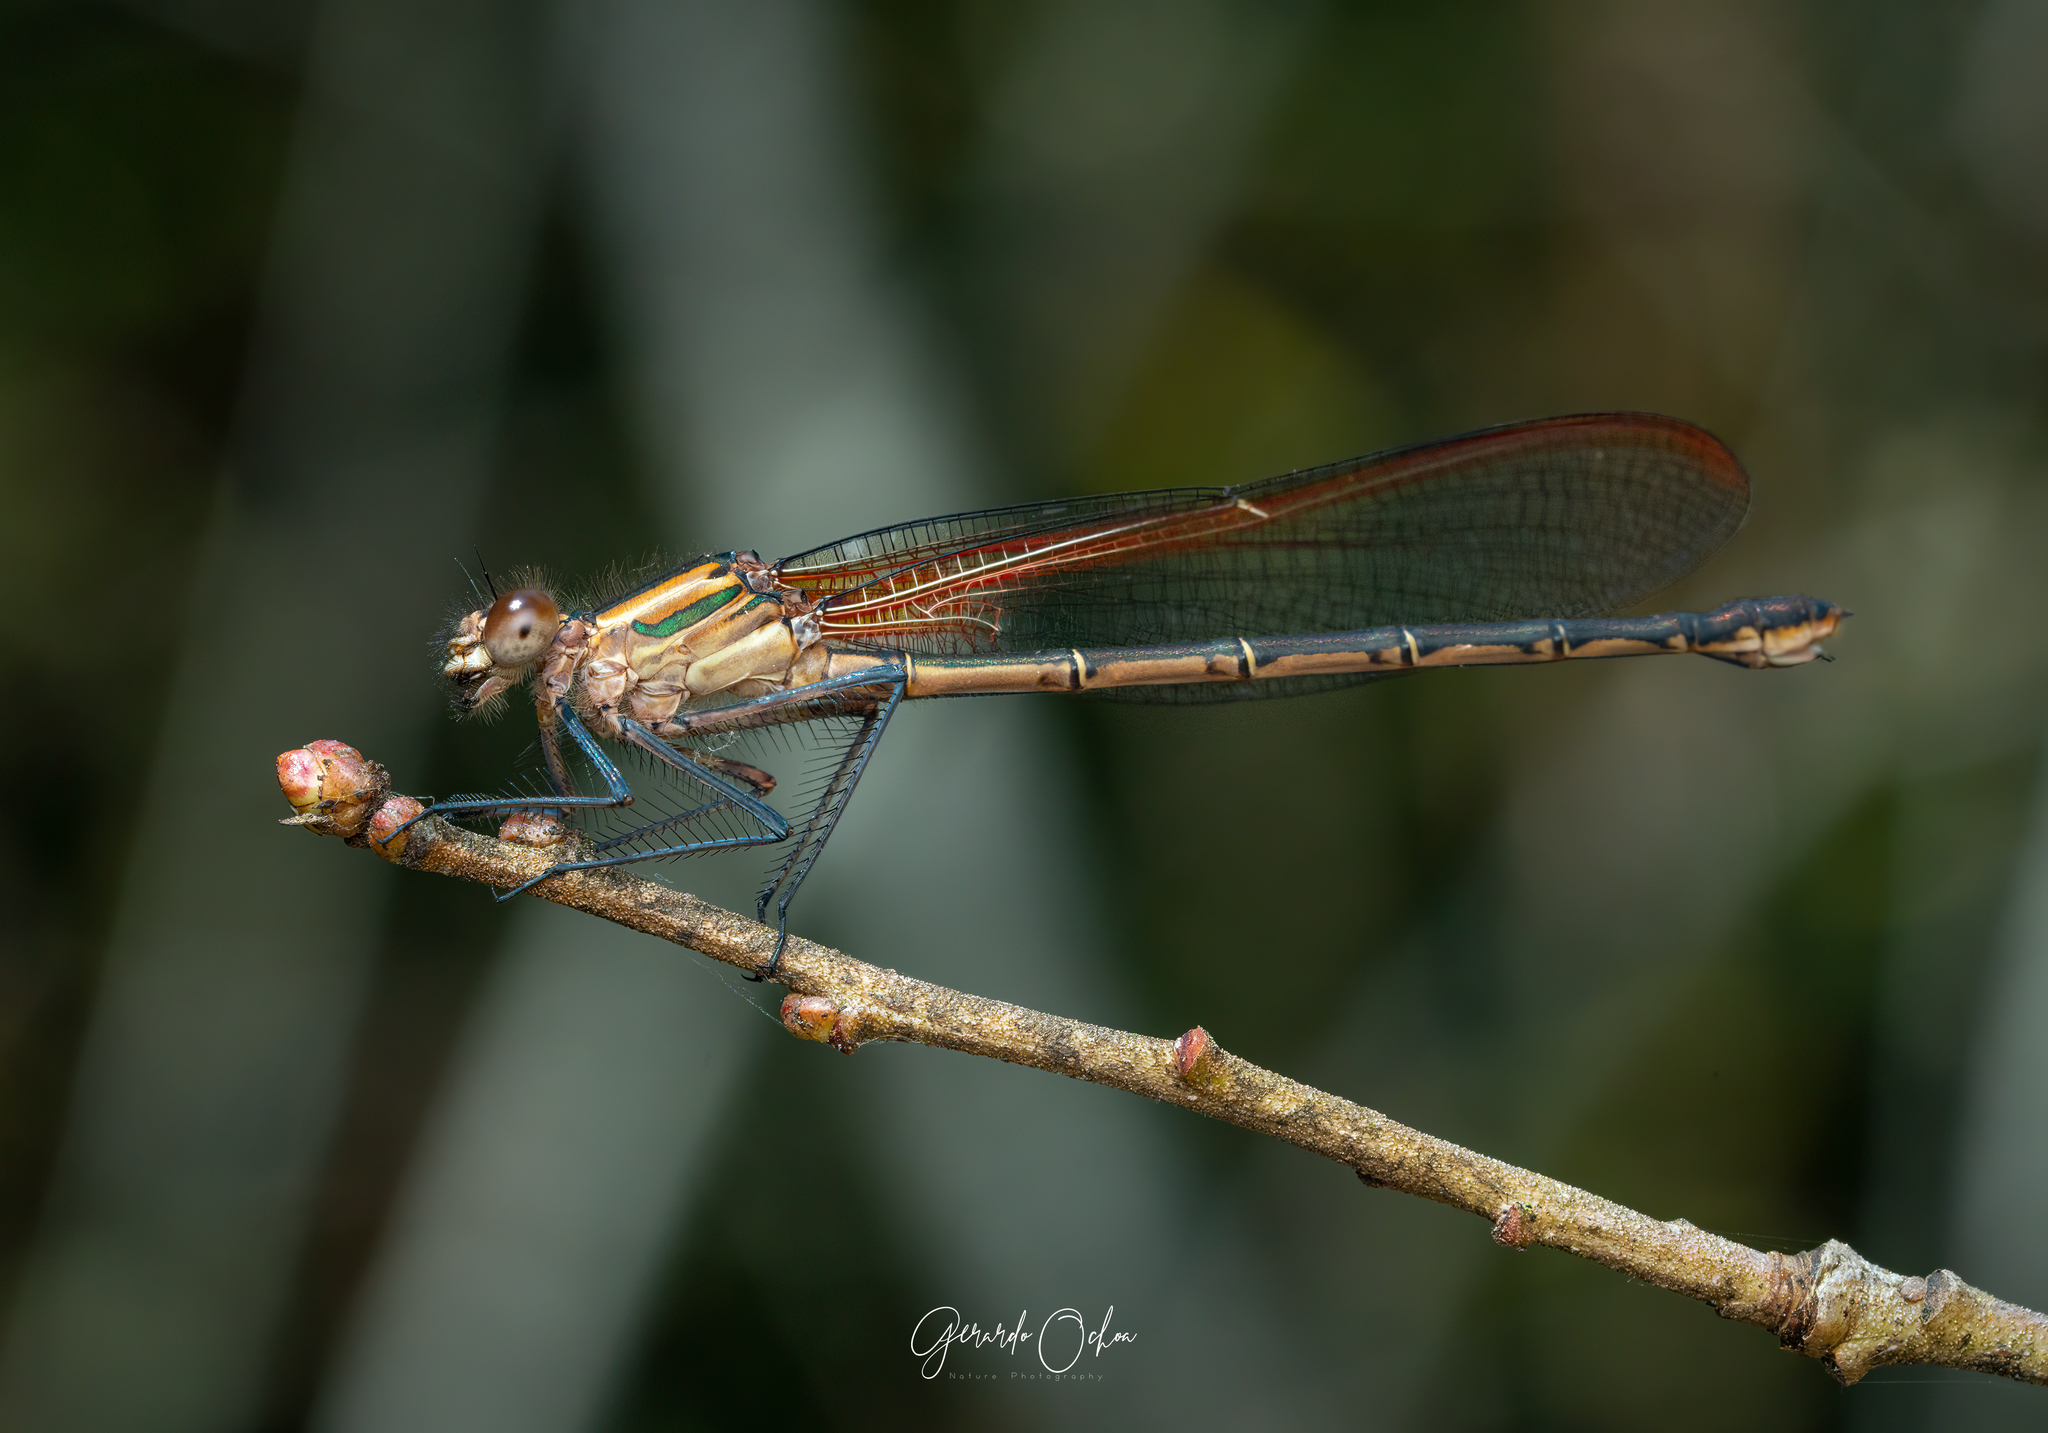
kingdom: Animalia
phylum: Arthropoda
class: Insecta
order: Odonata
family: Calopterygidae
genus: Hetaerina
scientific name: Hetaerina vulnerata
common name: Canyon rubyspot
